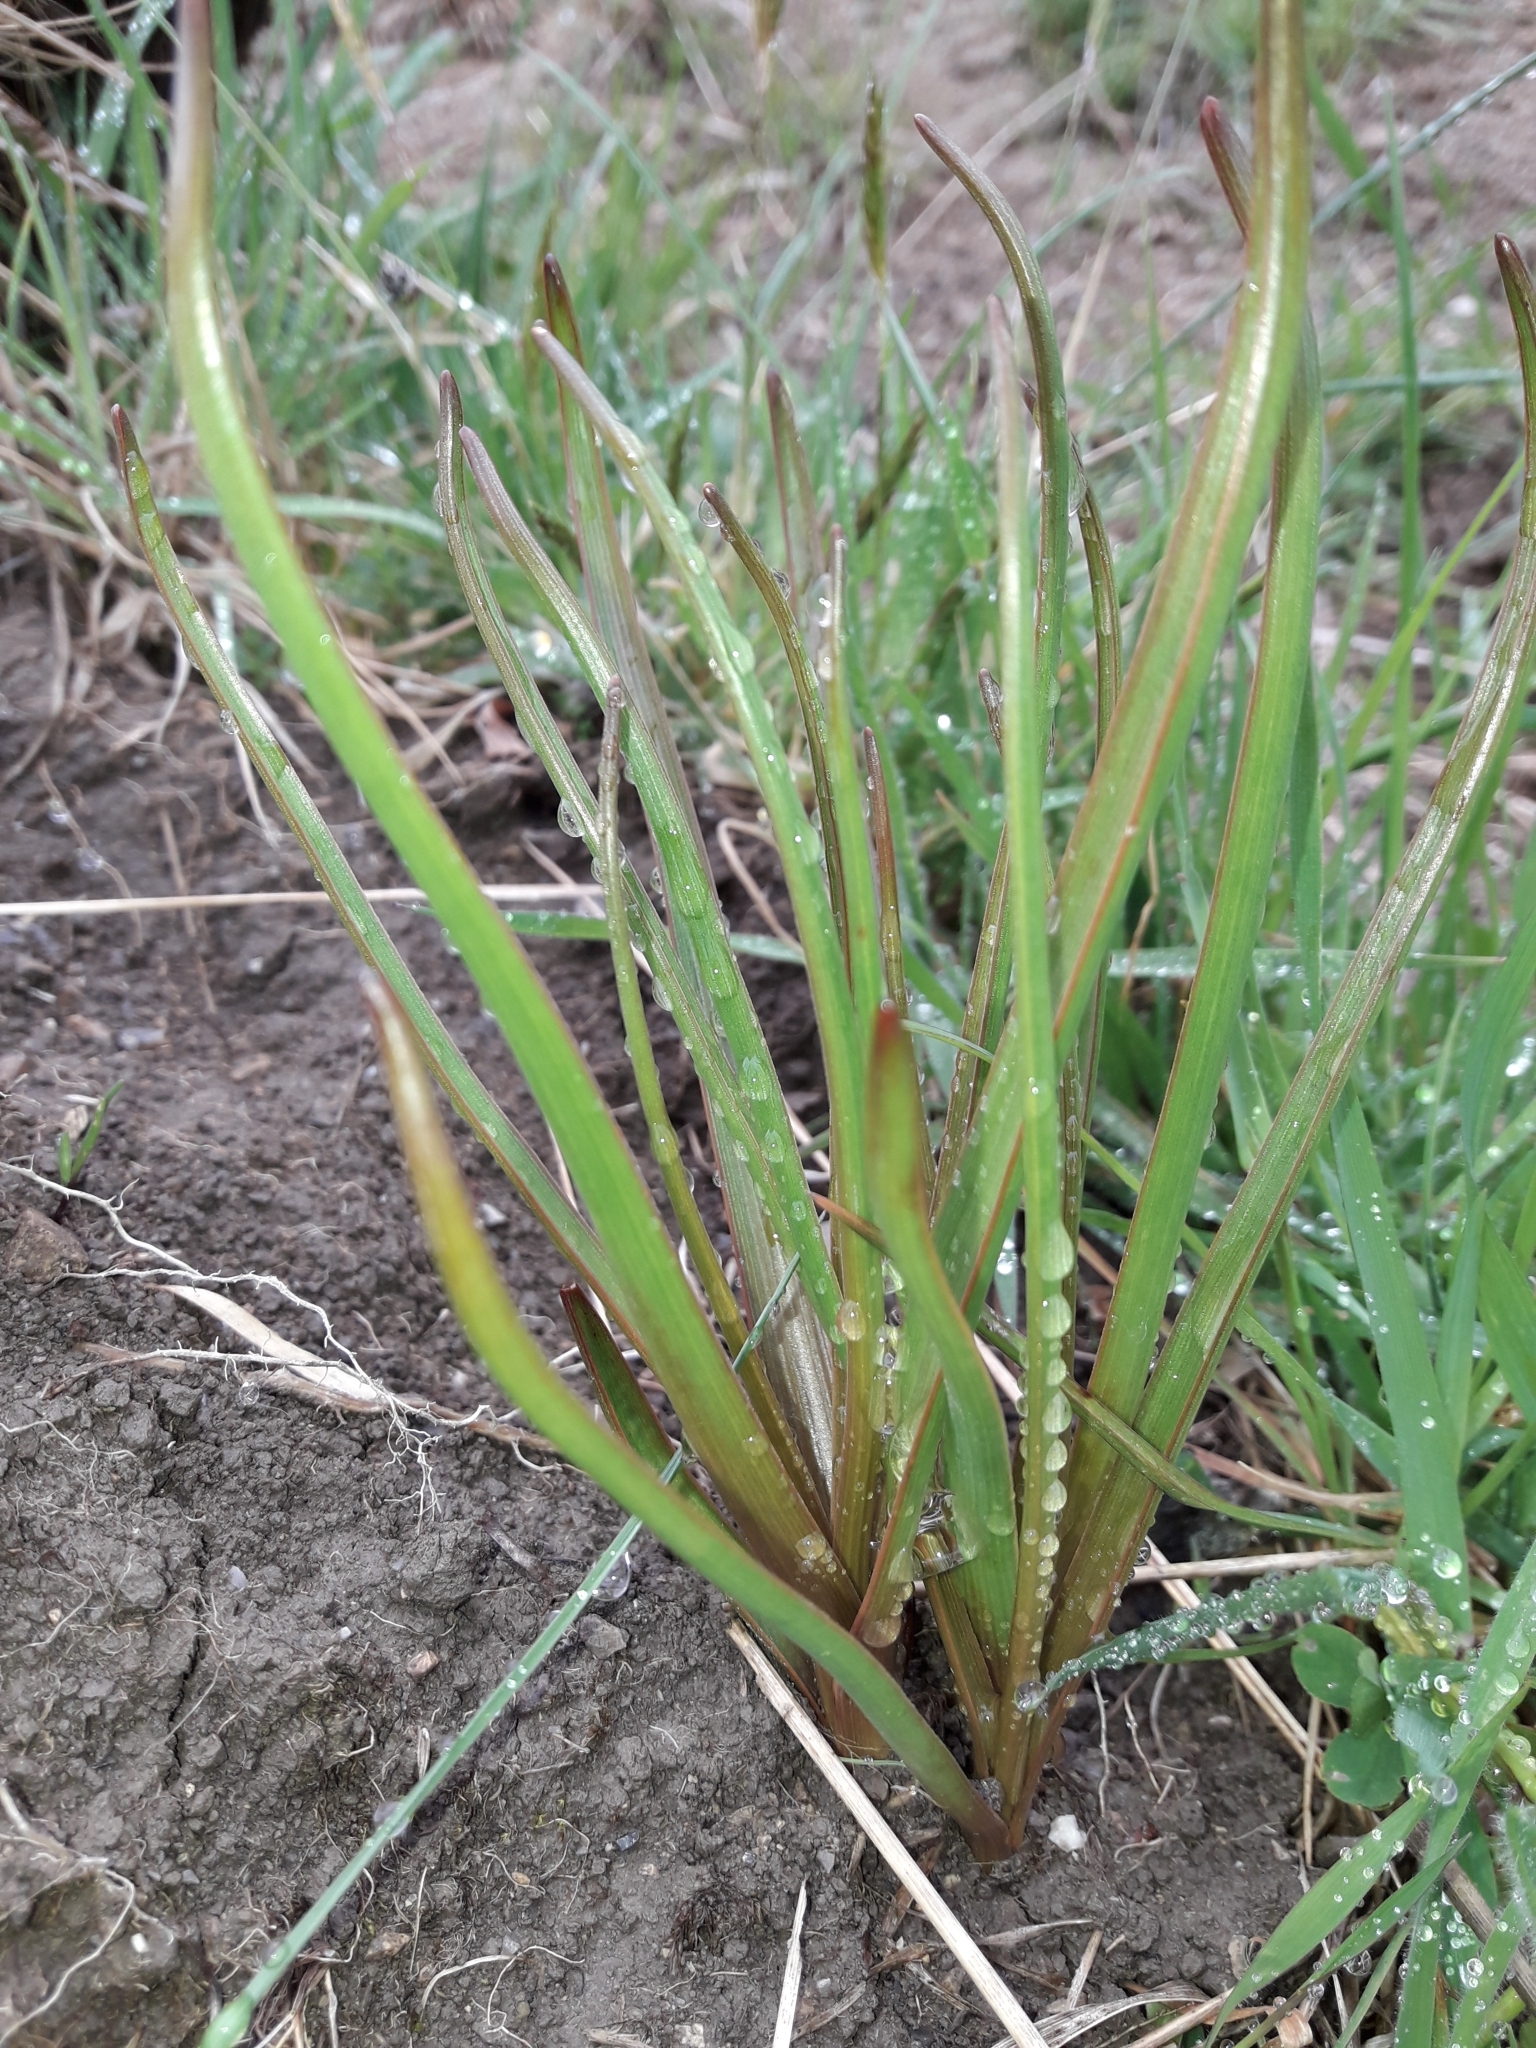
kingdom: Plantae
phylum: Tracheophyta
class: Liliopsida
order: Asparagales
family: Asphodelaceae
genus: Bulbinella
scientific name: Bulbinella hookeri
